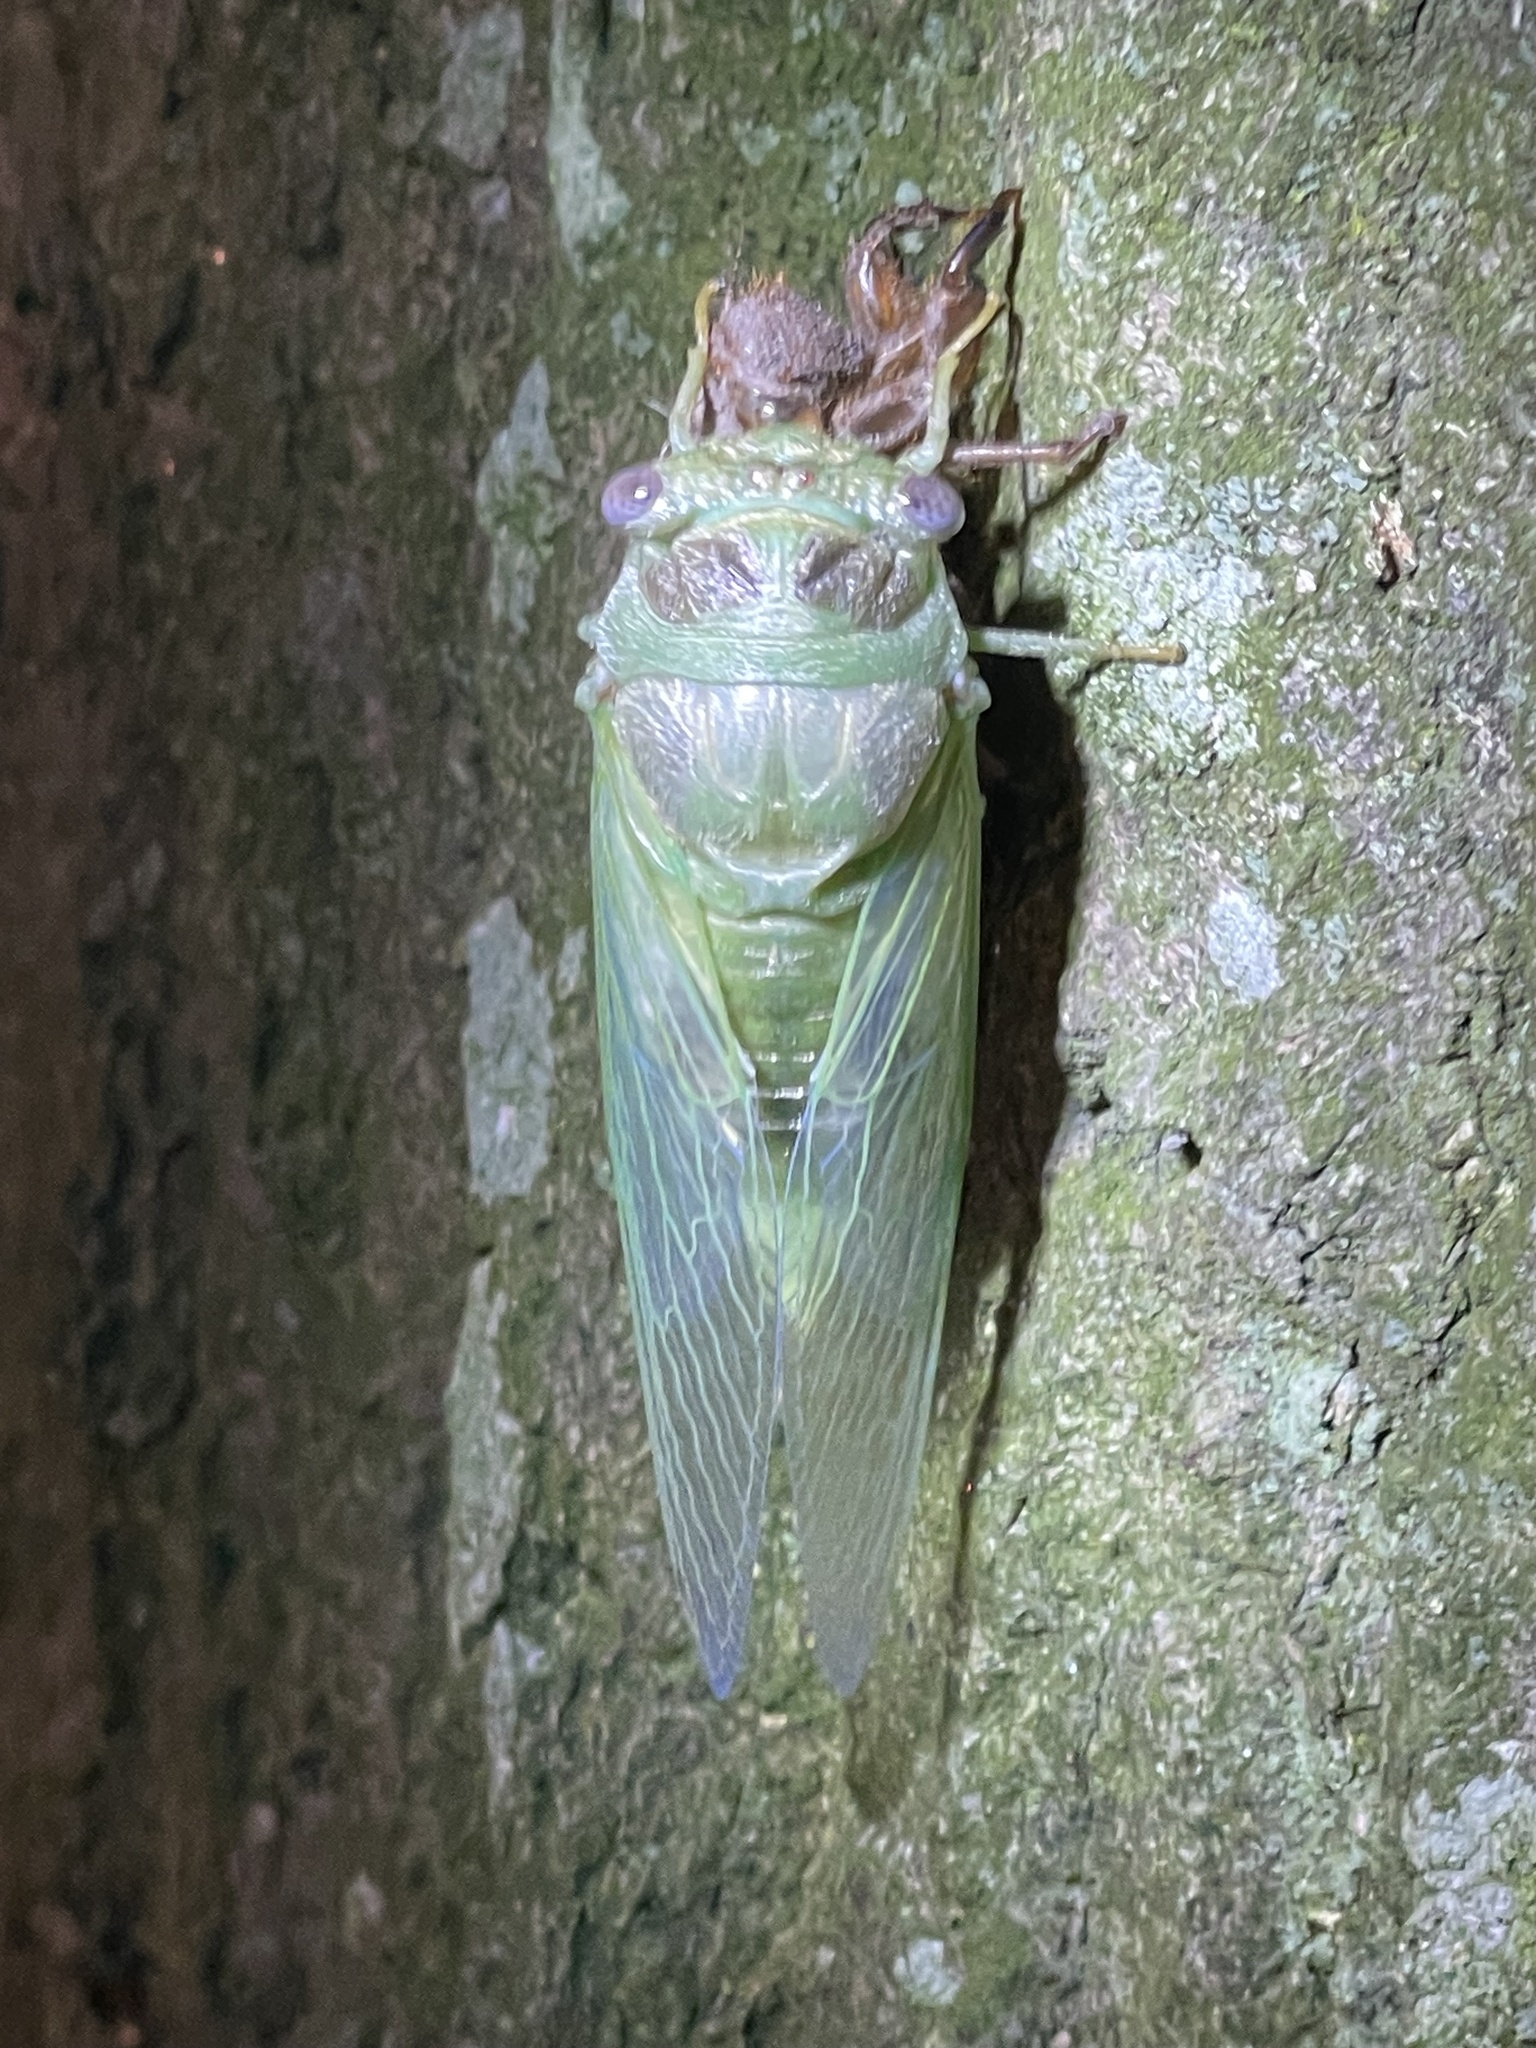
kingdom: Animalia
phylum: Arthropoda
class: Insecta
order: Hemiptera
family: Cicadidae
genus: Diceroprocta
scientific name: Diceroprocta grossa
